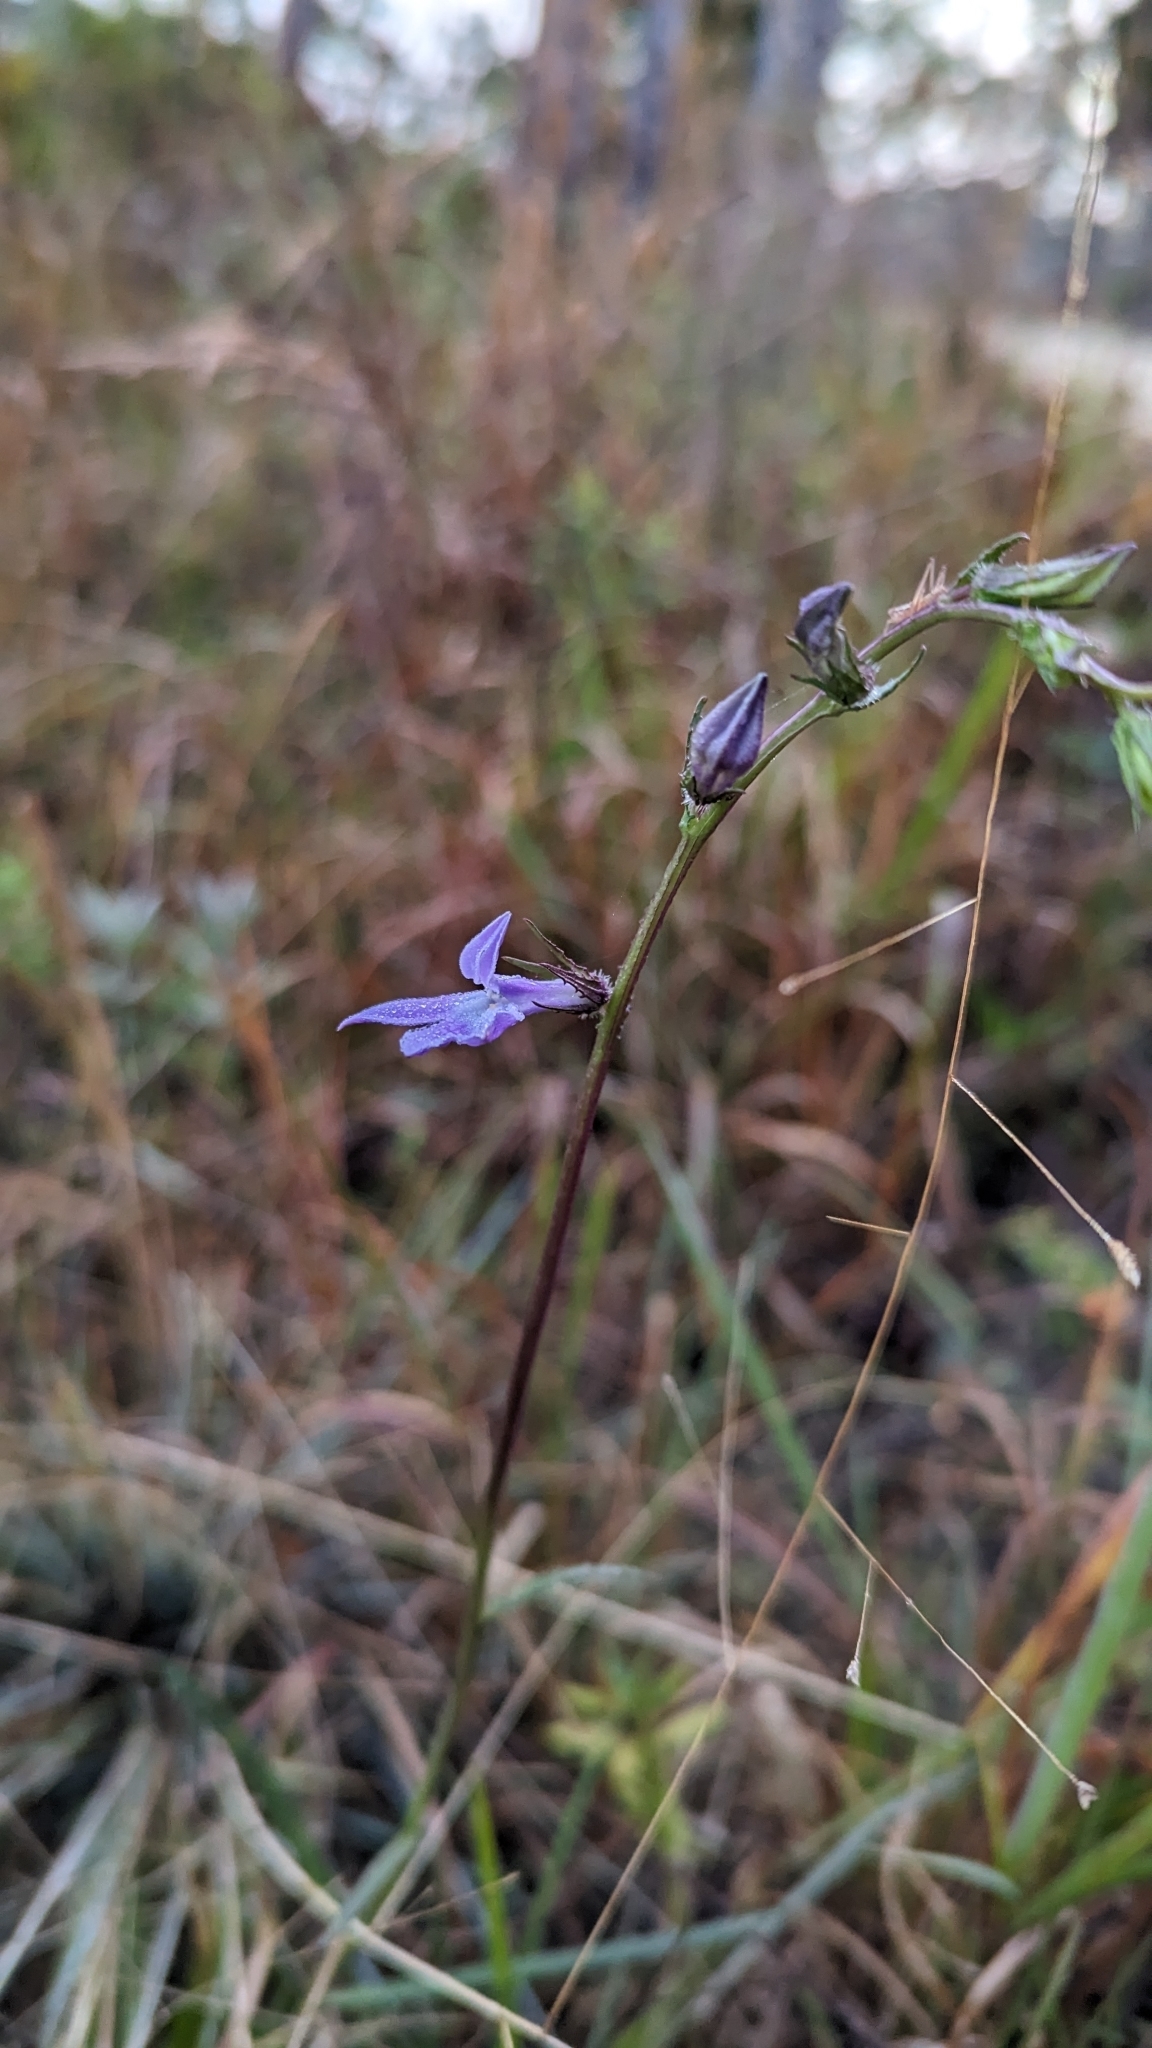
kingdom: Plantae
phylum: Tracheophyta
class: Magnoliopsida
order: Asterales
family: Campanulaceae
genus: Lobelia
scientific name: Lobelia glandulosa
